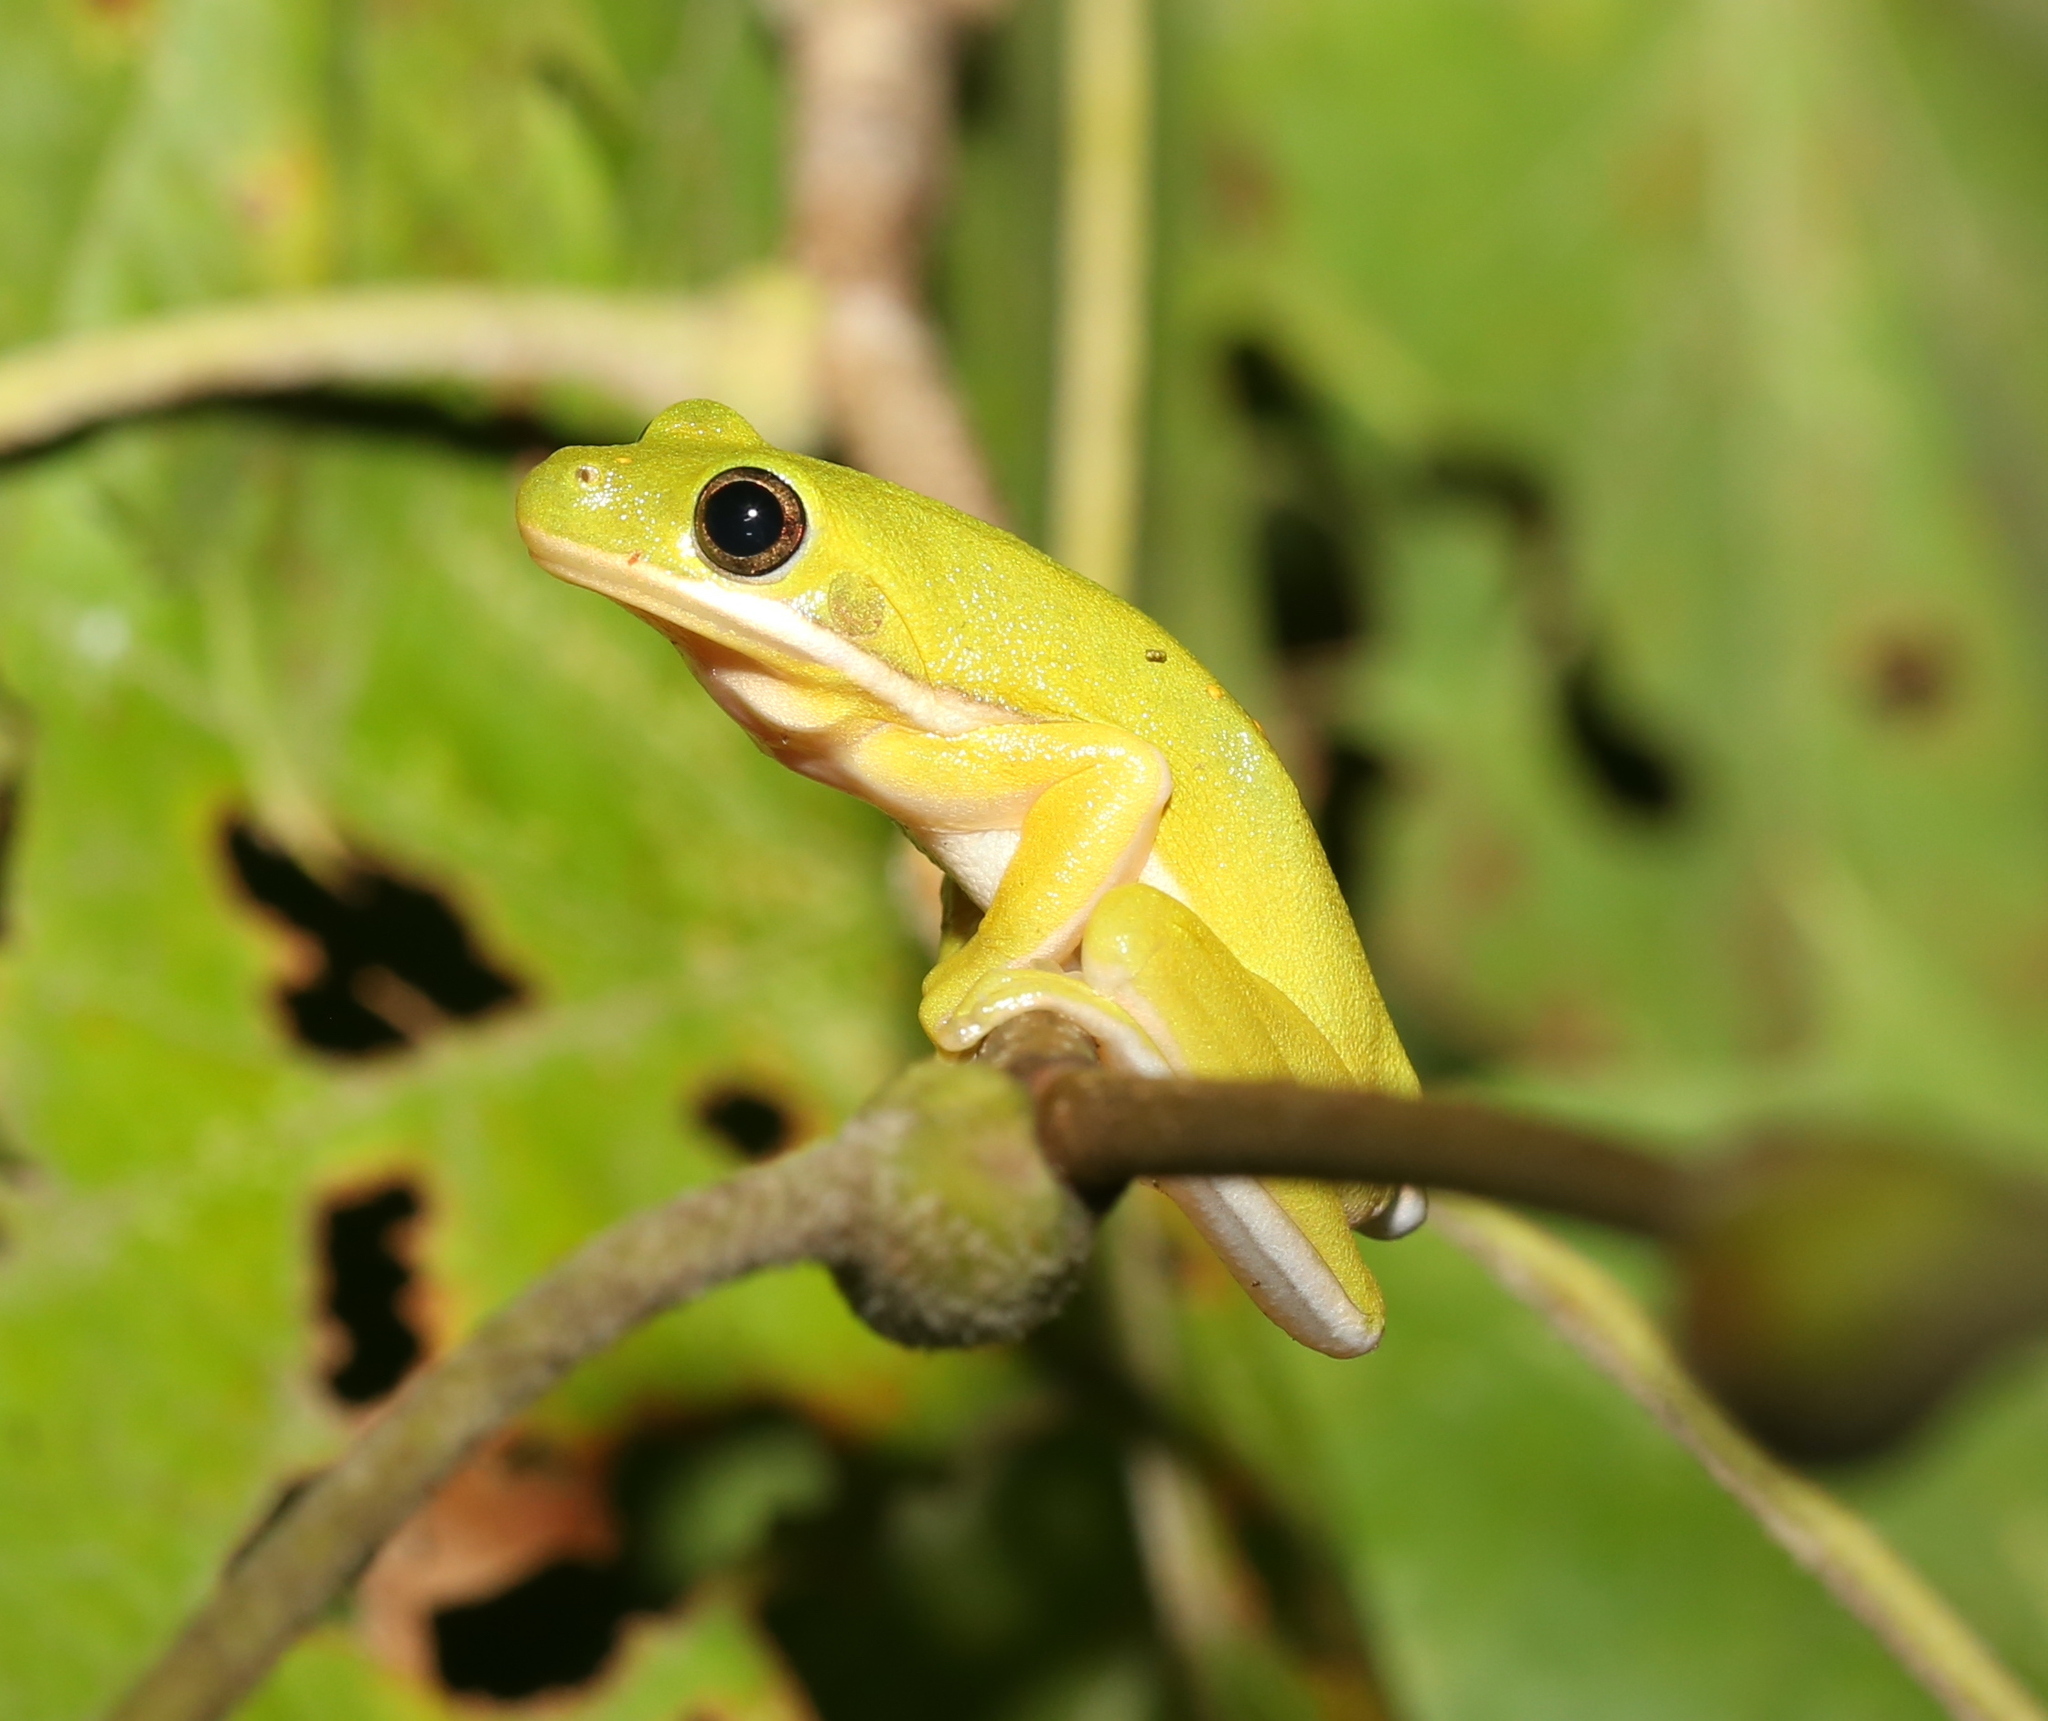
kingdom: Animalia
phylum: Chordata
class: Amphibia
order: Anura
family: Hylidae
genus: Dryophytes
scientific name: Dryophytes cinereus
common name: Green treefrog
